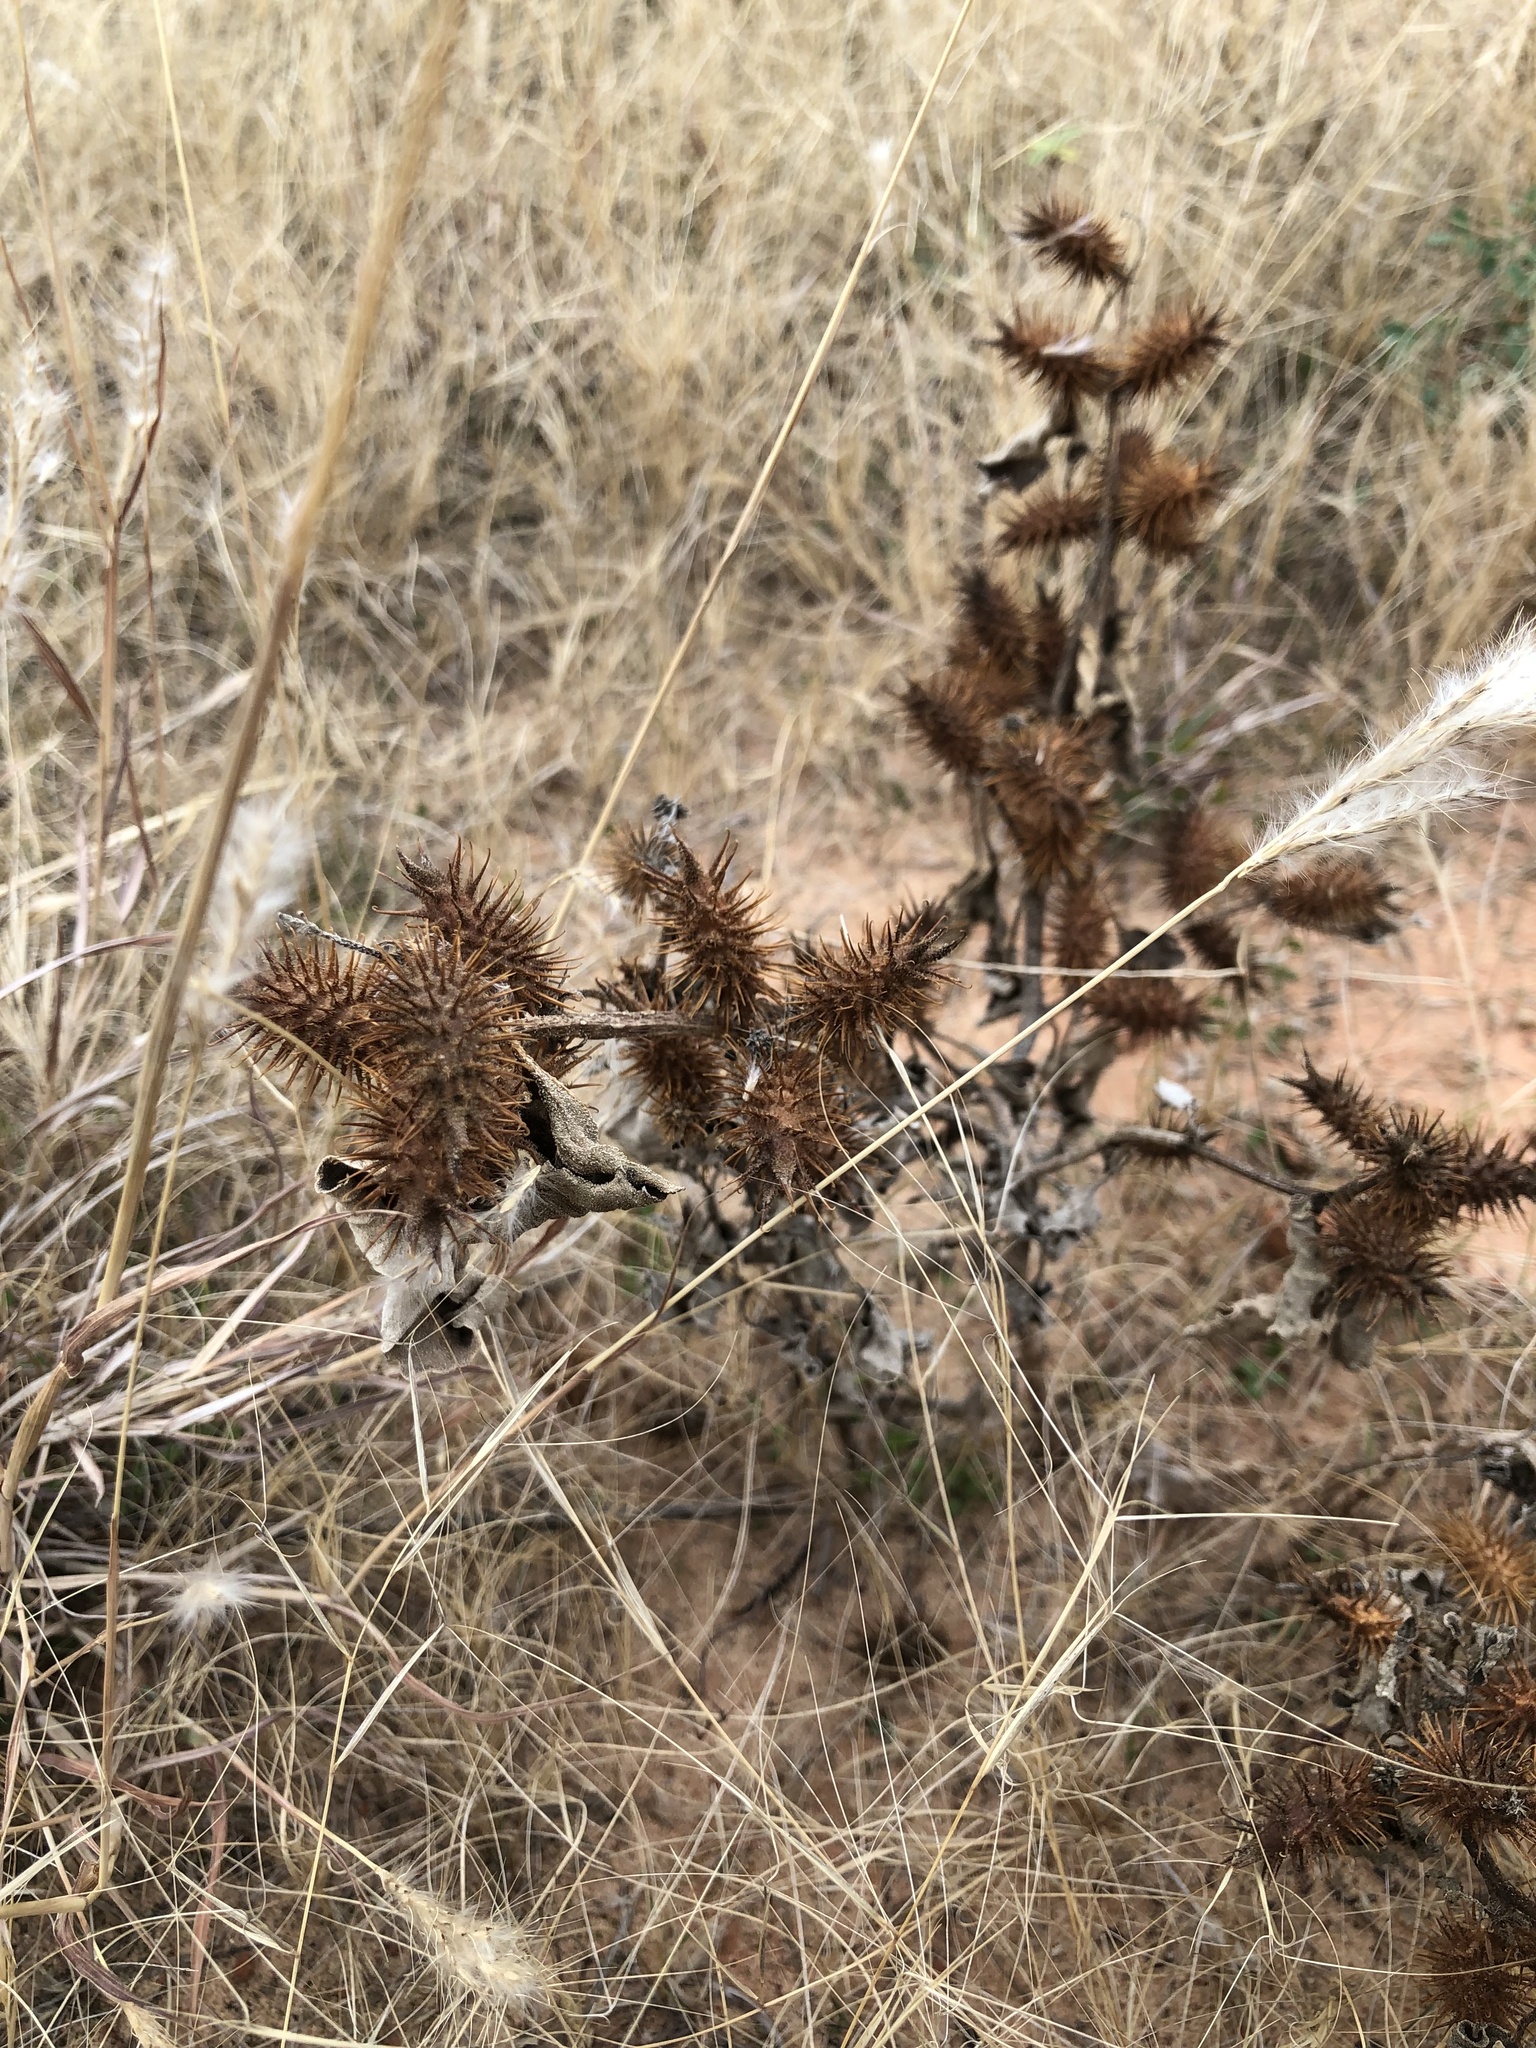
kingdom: Plantae
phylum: Tracheophyta
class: Magnoliopsida
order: Asterales
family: Asteraceae
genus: Xanthium
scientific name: Xanthium strumarium
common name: Rough cocklebur
